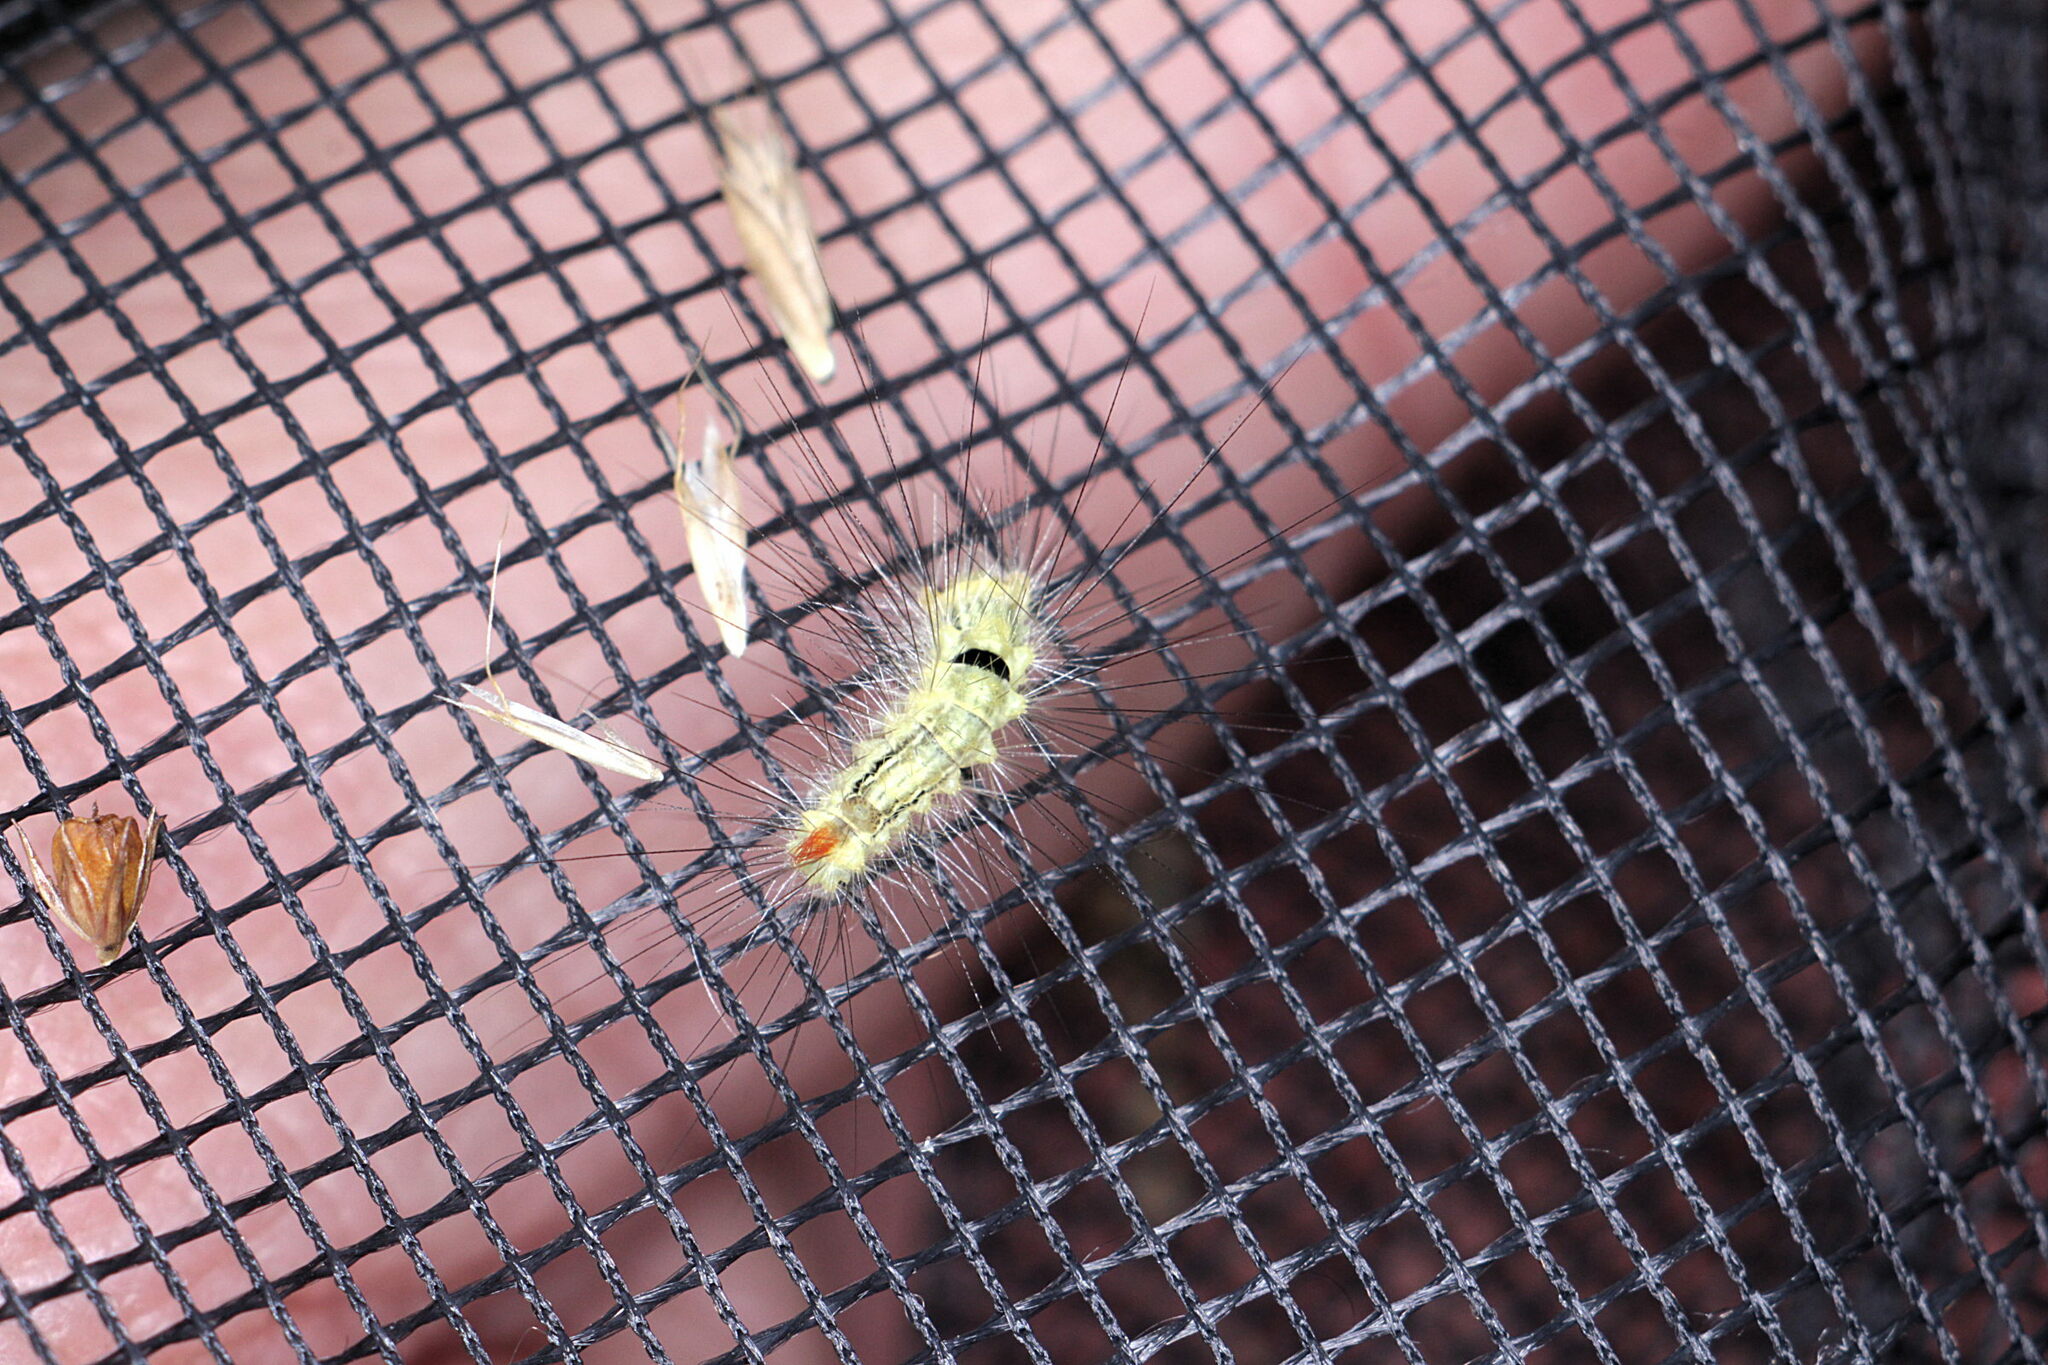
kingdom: Animalia
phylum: Arthropoda
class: Insecta
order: Lepidoptera
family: Erebidae
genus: Calliteara
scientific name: Calliteara pudibunda
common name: Pale tussock
